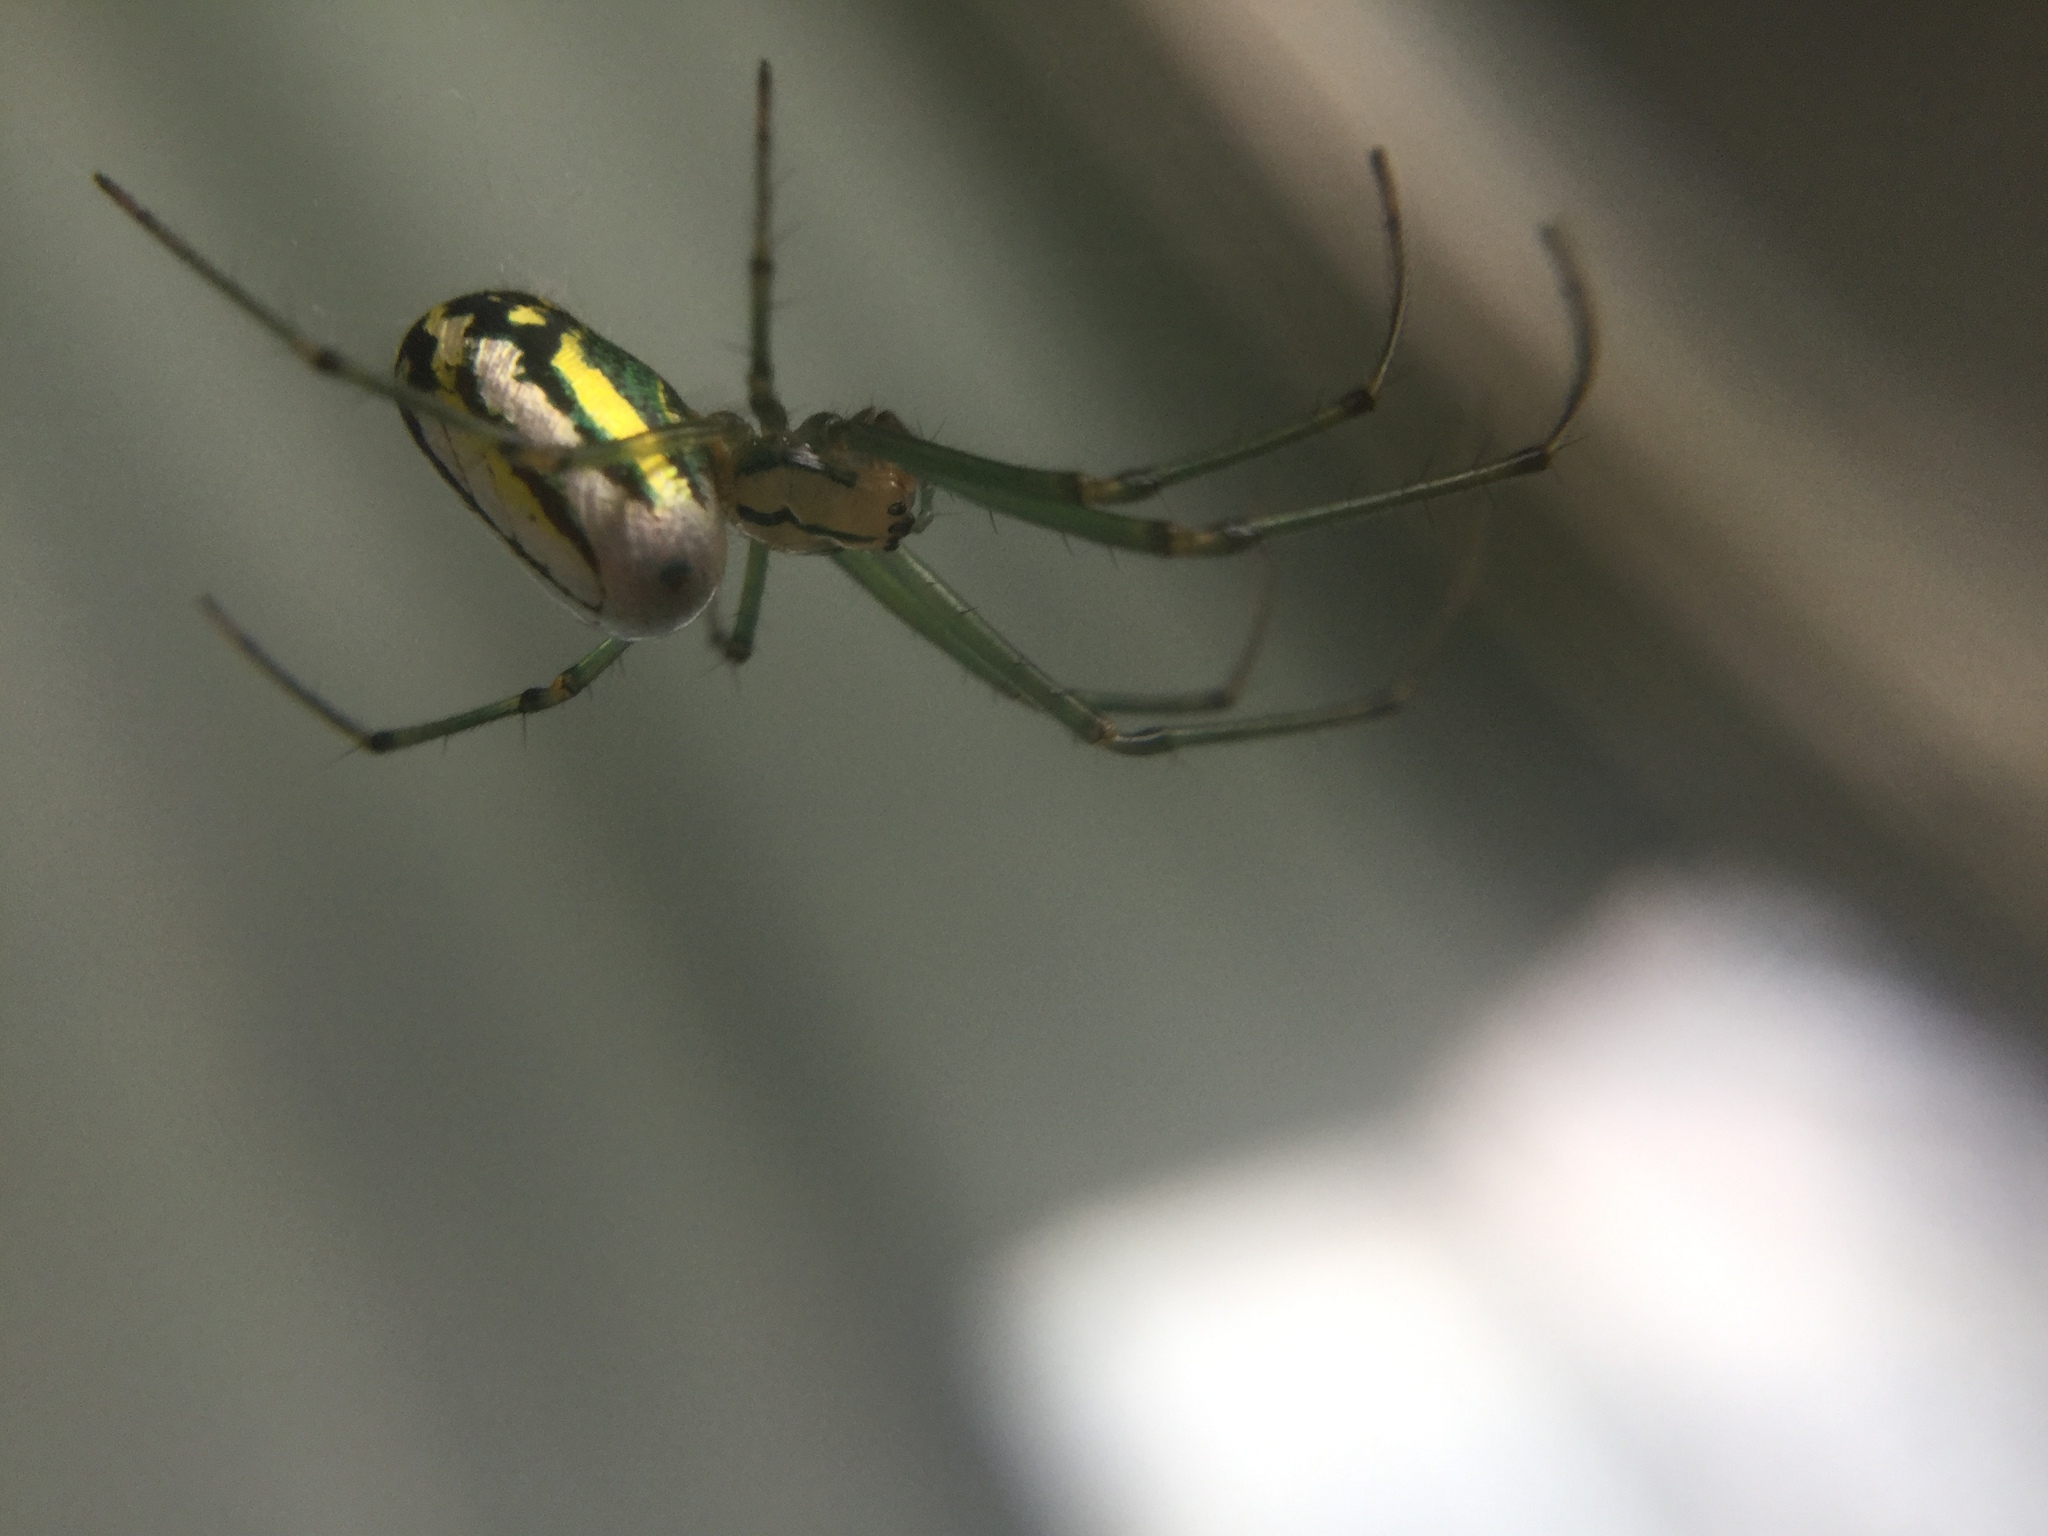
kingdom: Animalia
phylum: Arthropoda
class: Arachnida
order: Araneae
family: Tetragnathidae
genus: Leucauge
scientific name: Leucauge venusta
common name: Longjawed orb weavers
